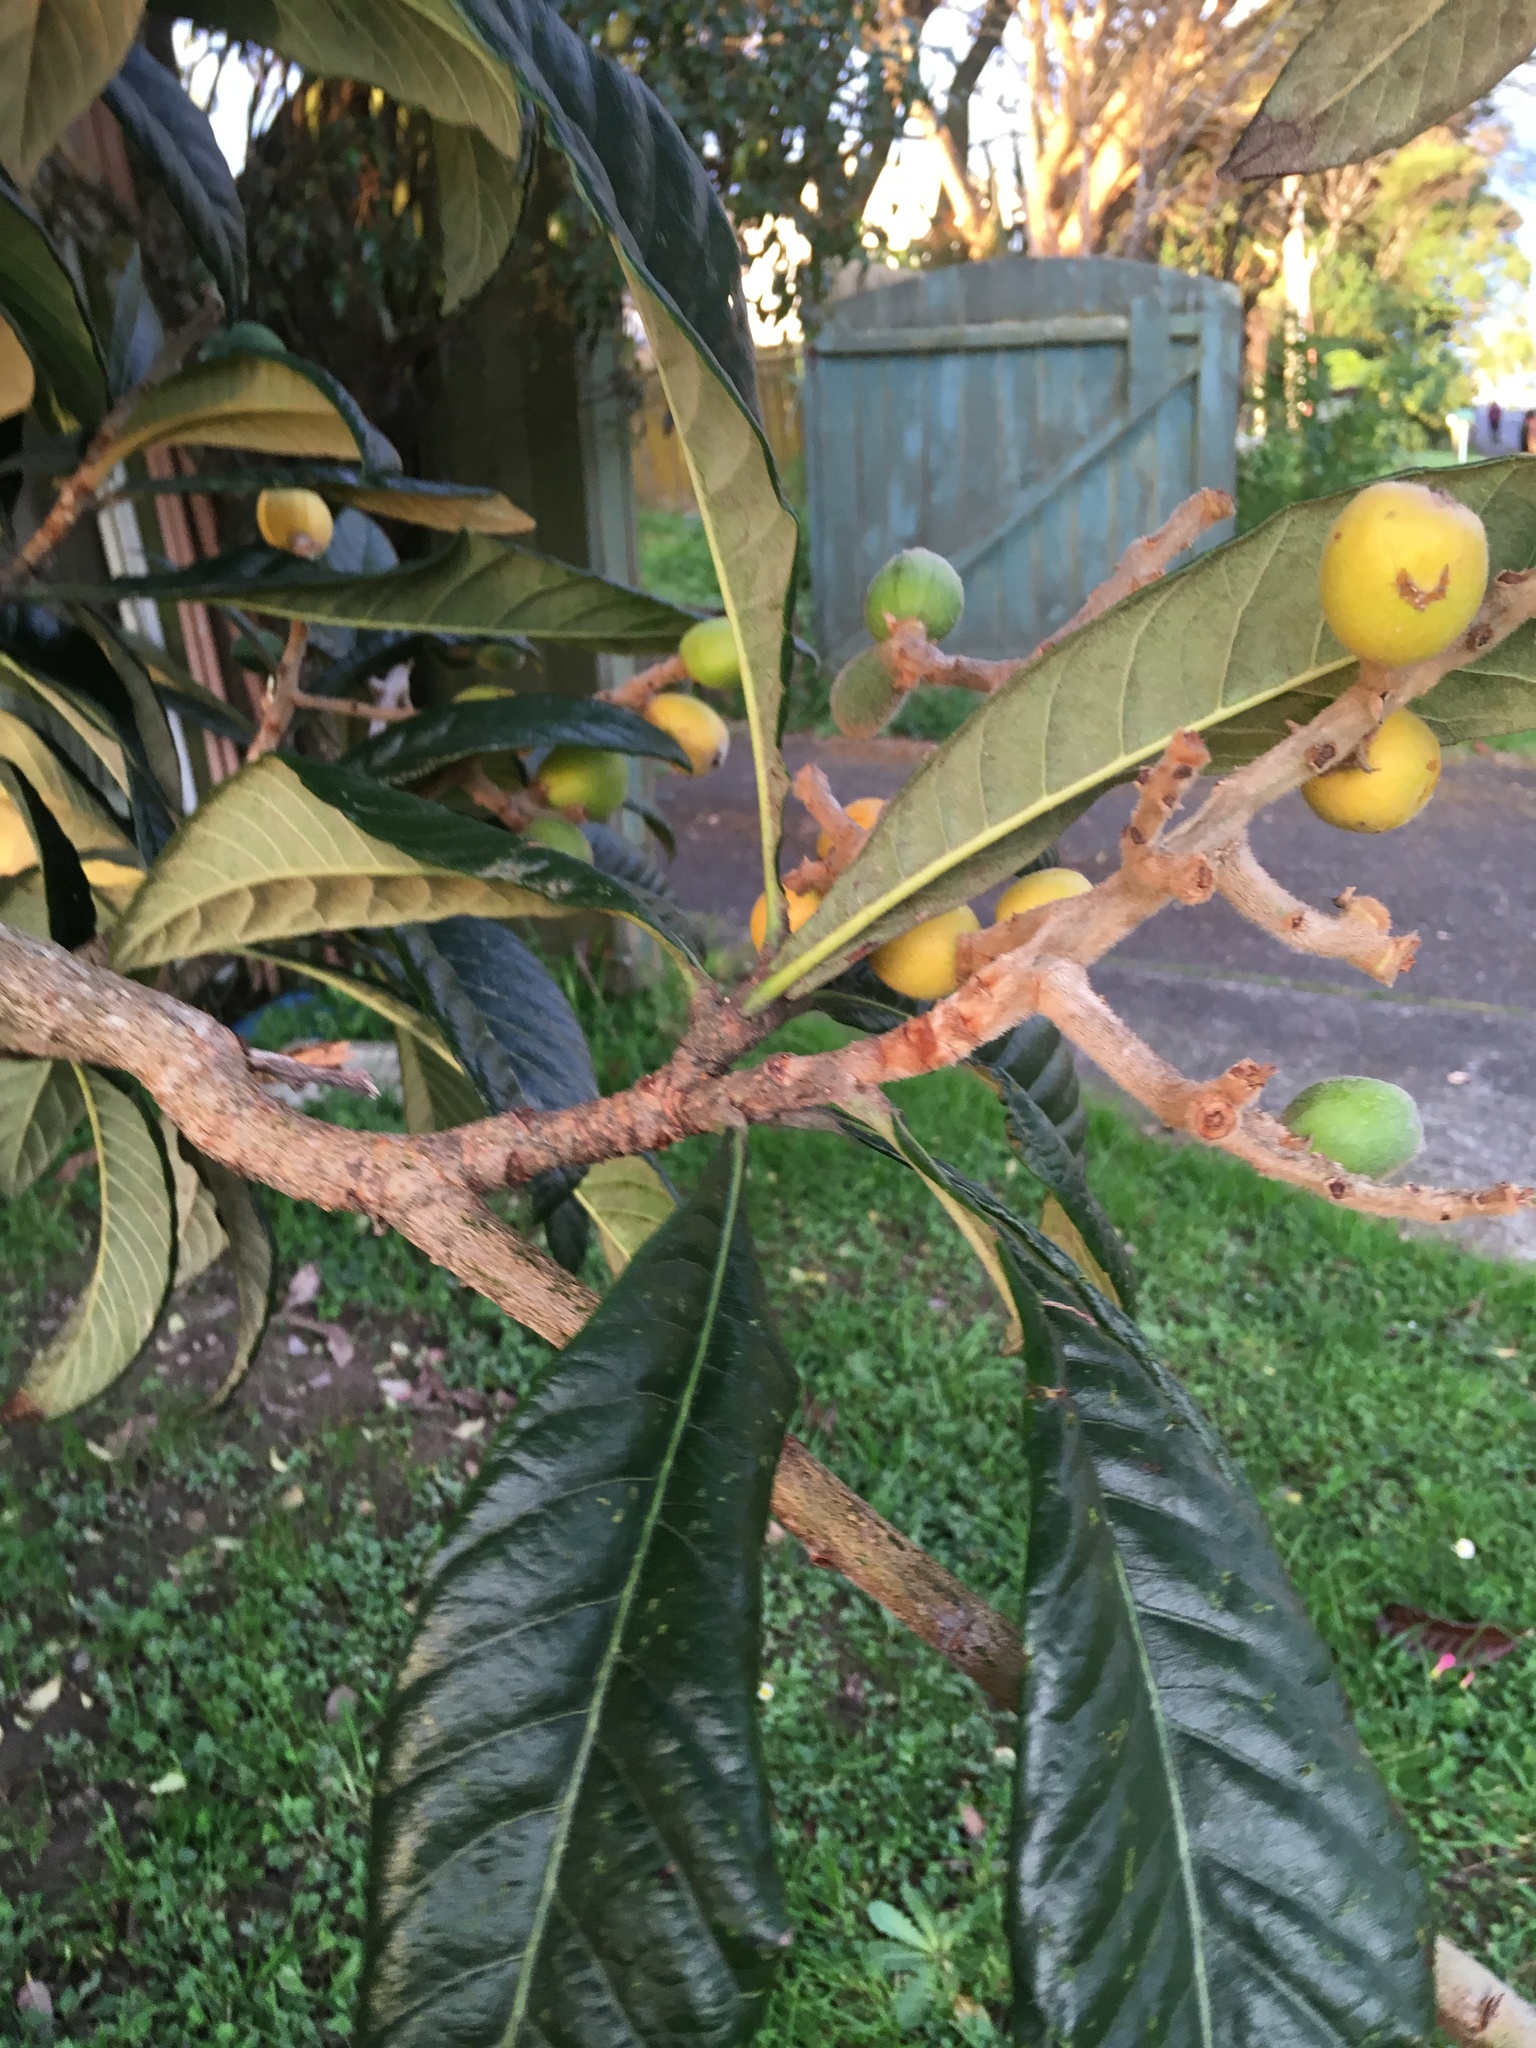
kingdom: Plantae
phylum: Tracheophyta
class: Magnoliopsida
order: Rosales
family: Rosaceae
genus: Rhaphiolepis
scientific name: Rhaphiolepis bibas
